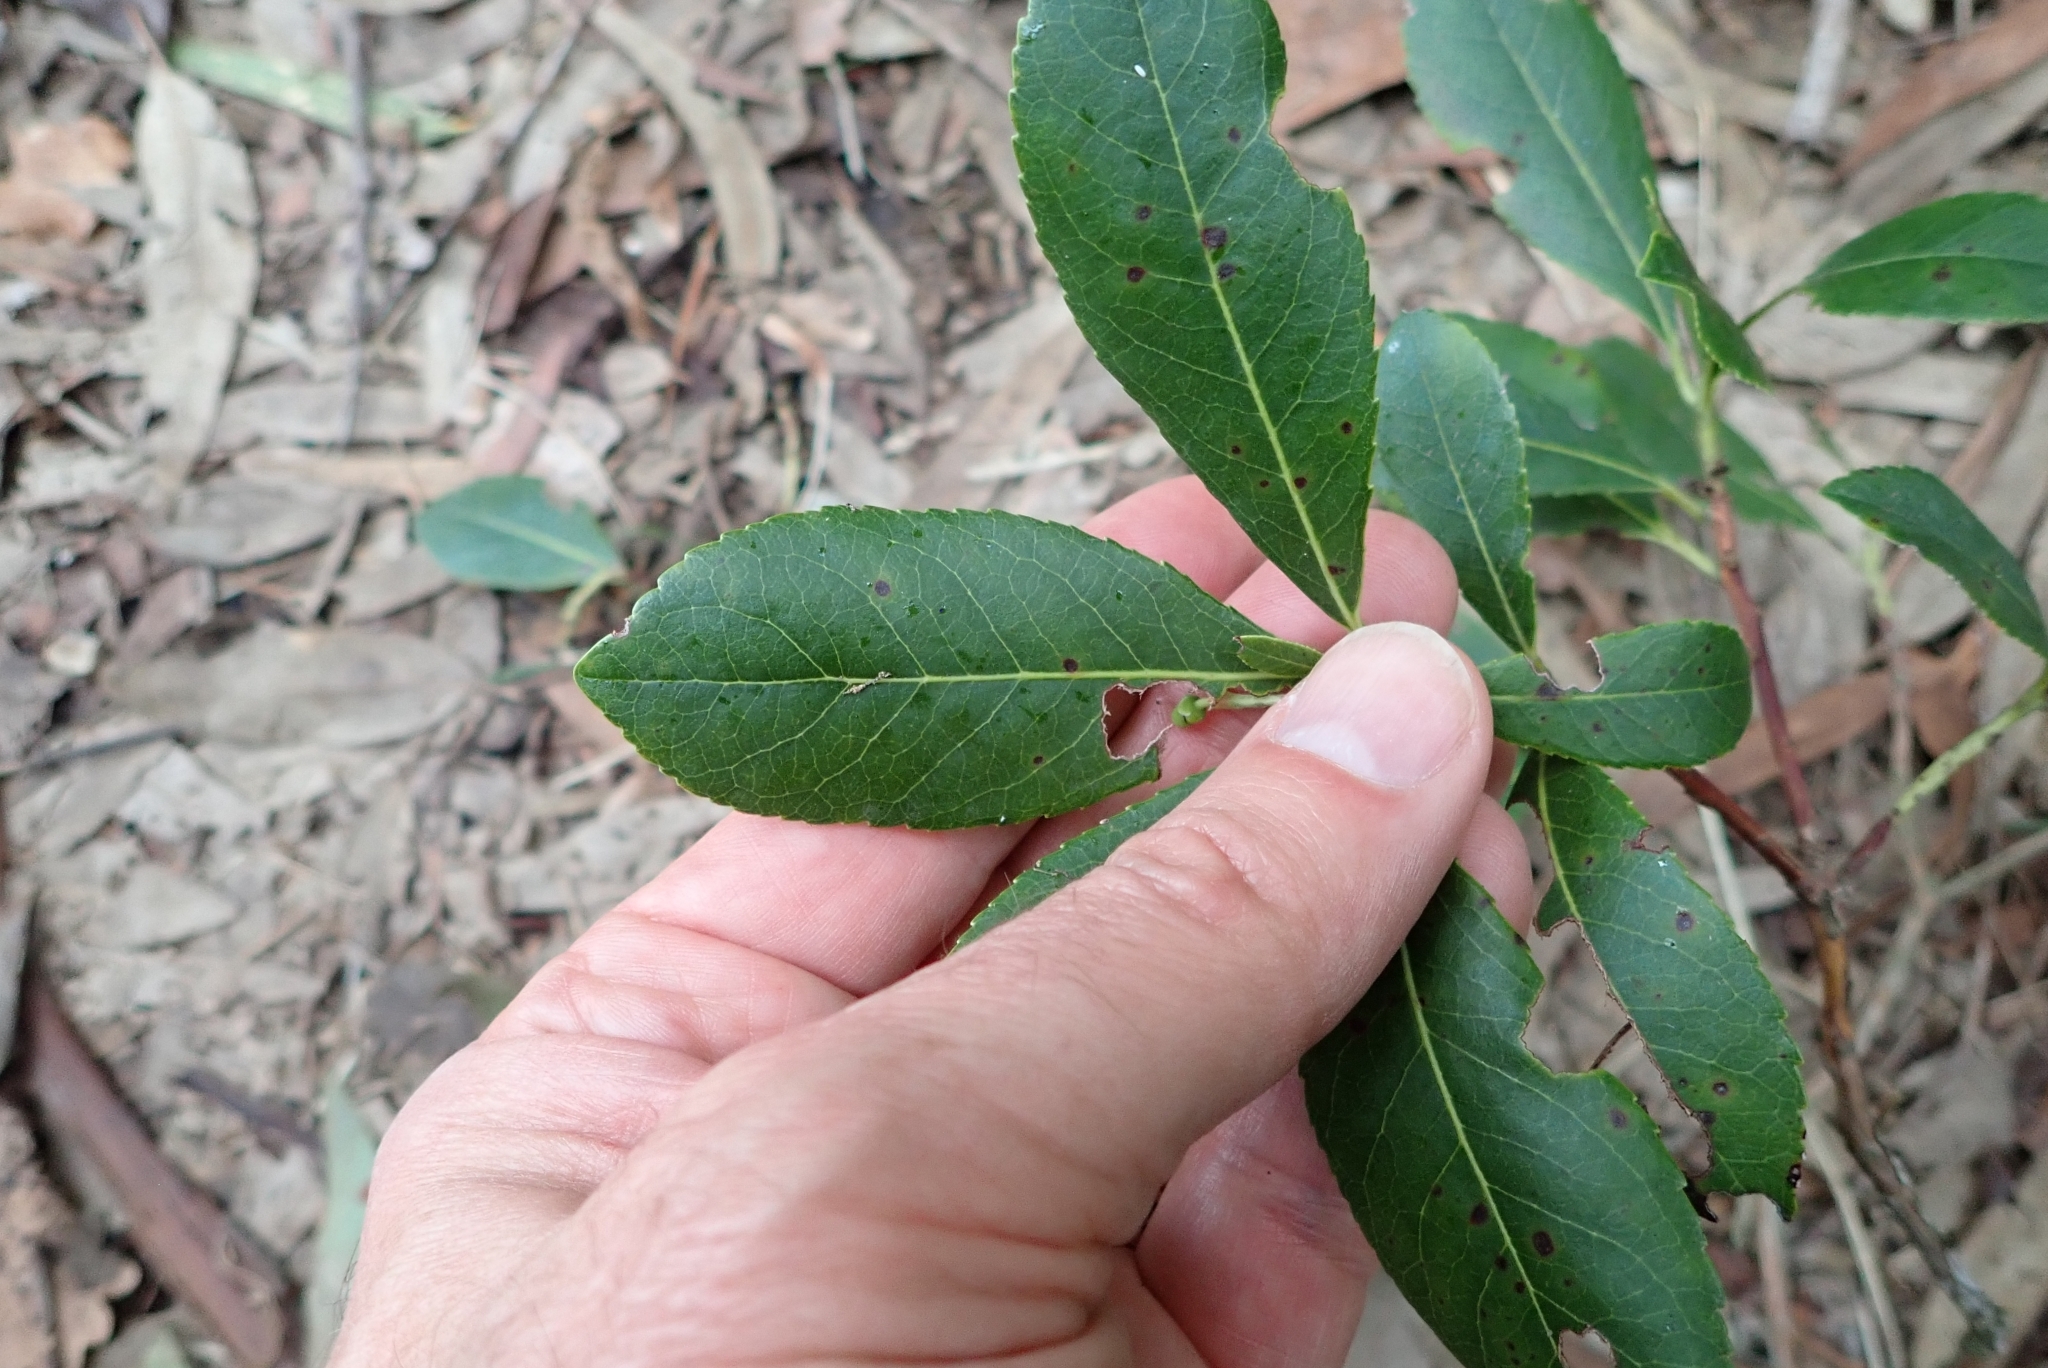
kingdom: Plantae
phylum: Tracheophyta
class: Magnoliopsida
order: Ericales
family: Ericaceae
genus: Arbutus
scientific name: Arbutus unedo
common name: Strawberry-tree
